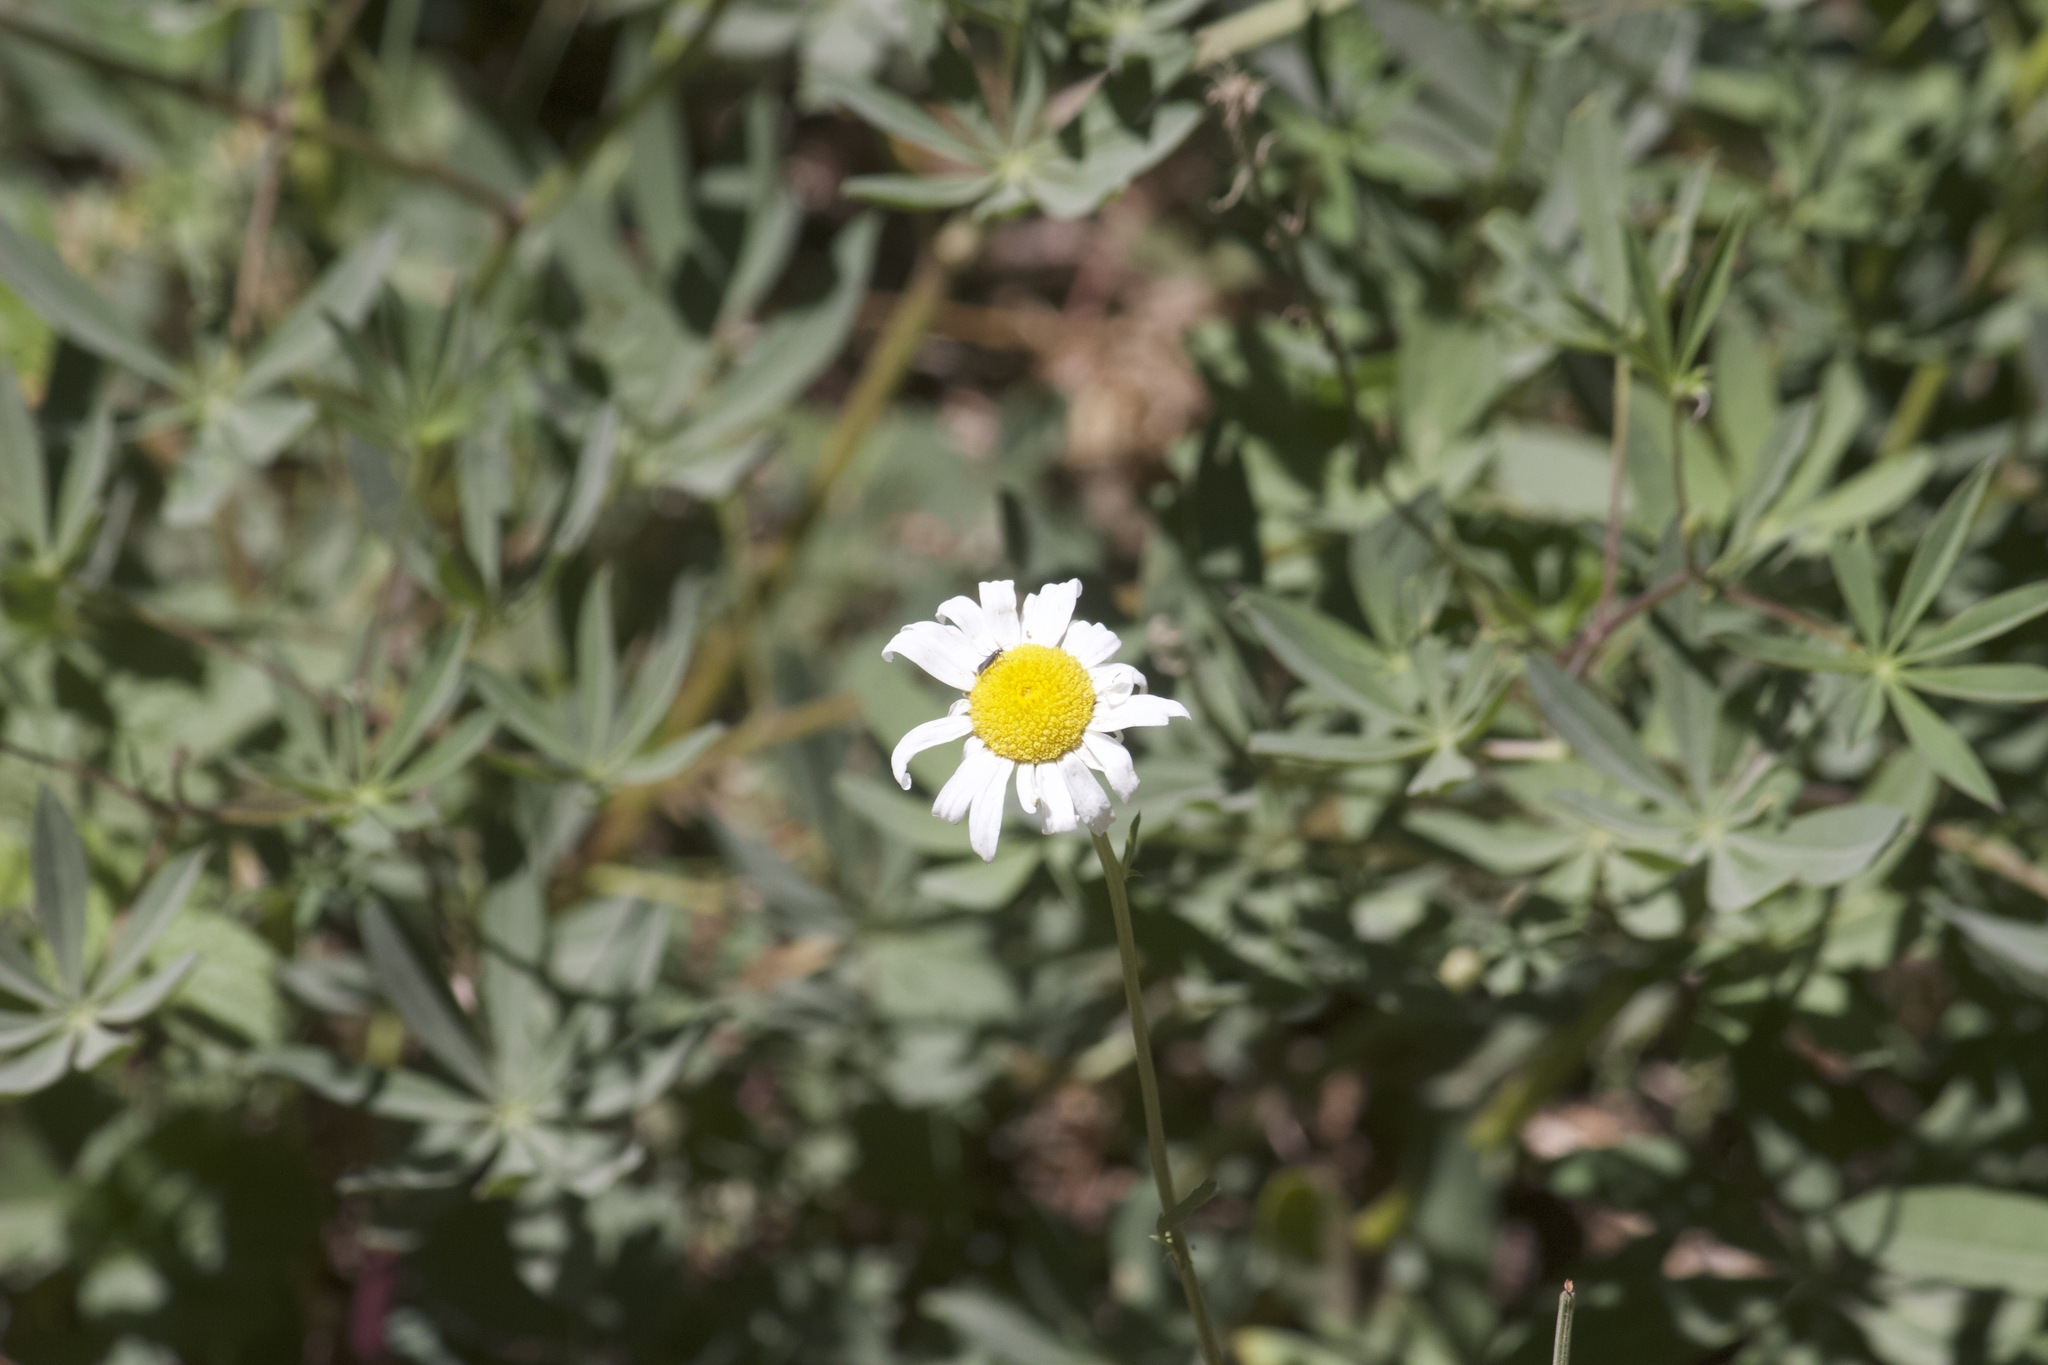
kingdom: Plantae
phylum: Tracheophyta
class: Magnoliopsida
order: Asterales
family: Asteraceae
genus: Leucanthemum
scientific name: Leucanthemum vulgare
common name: Oxeye daisy
